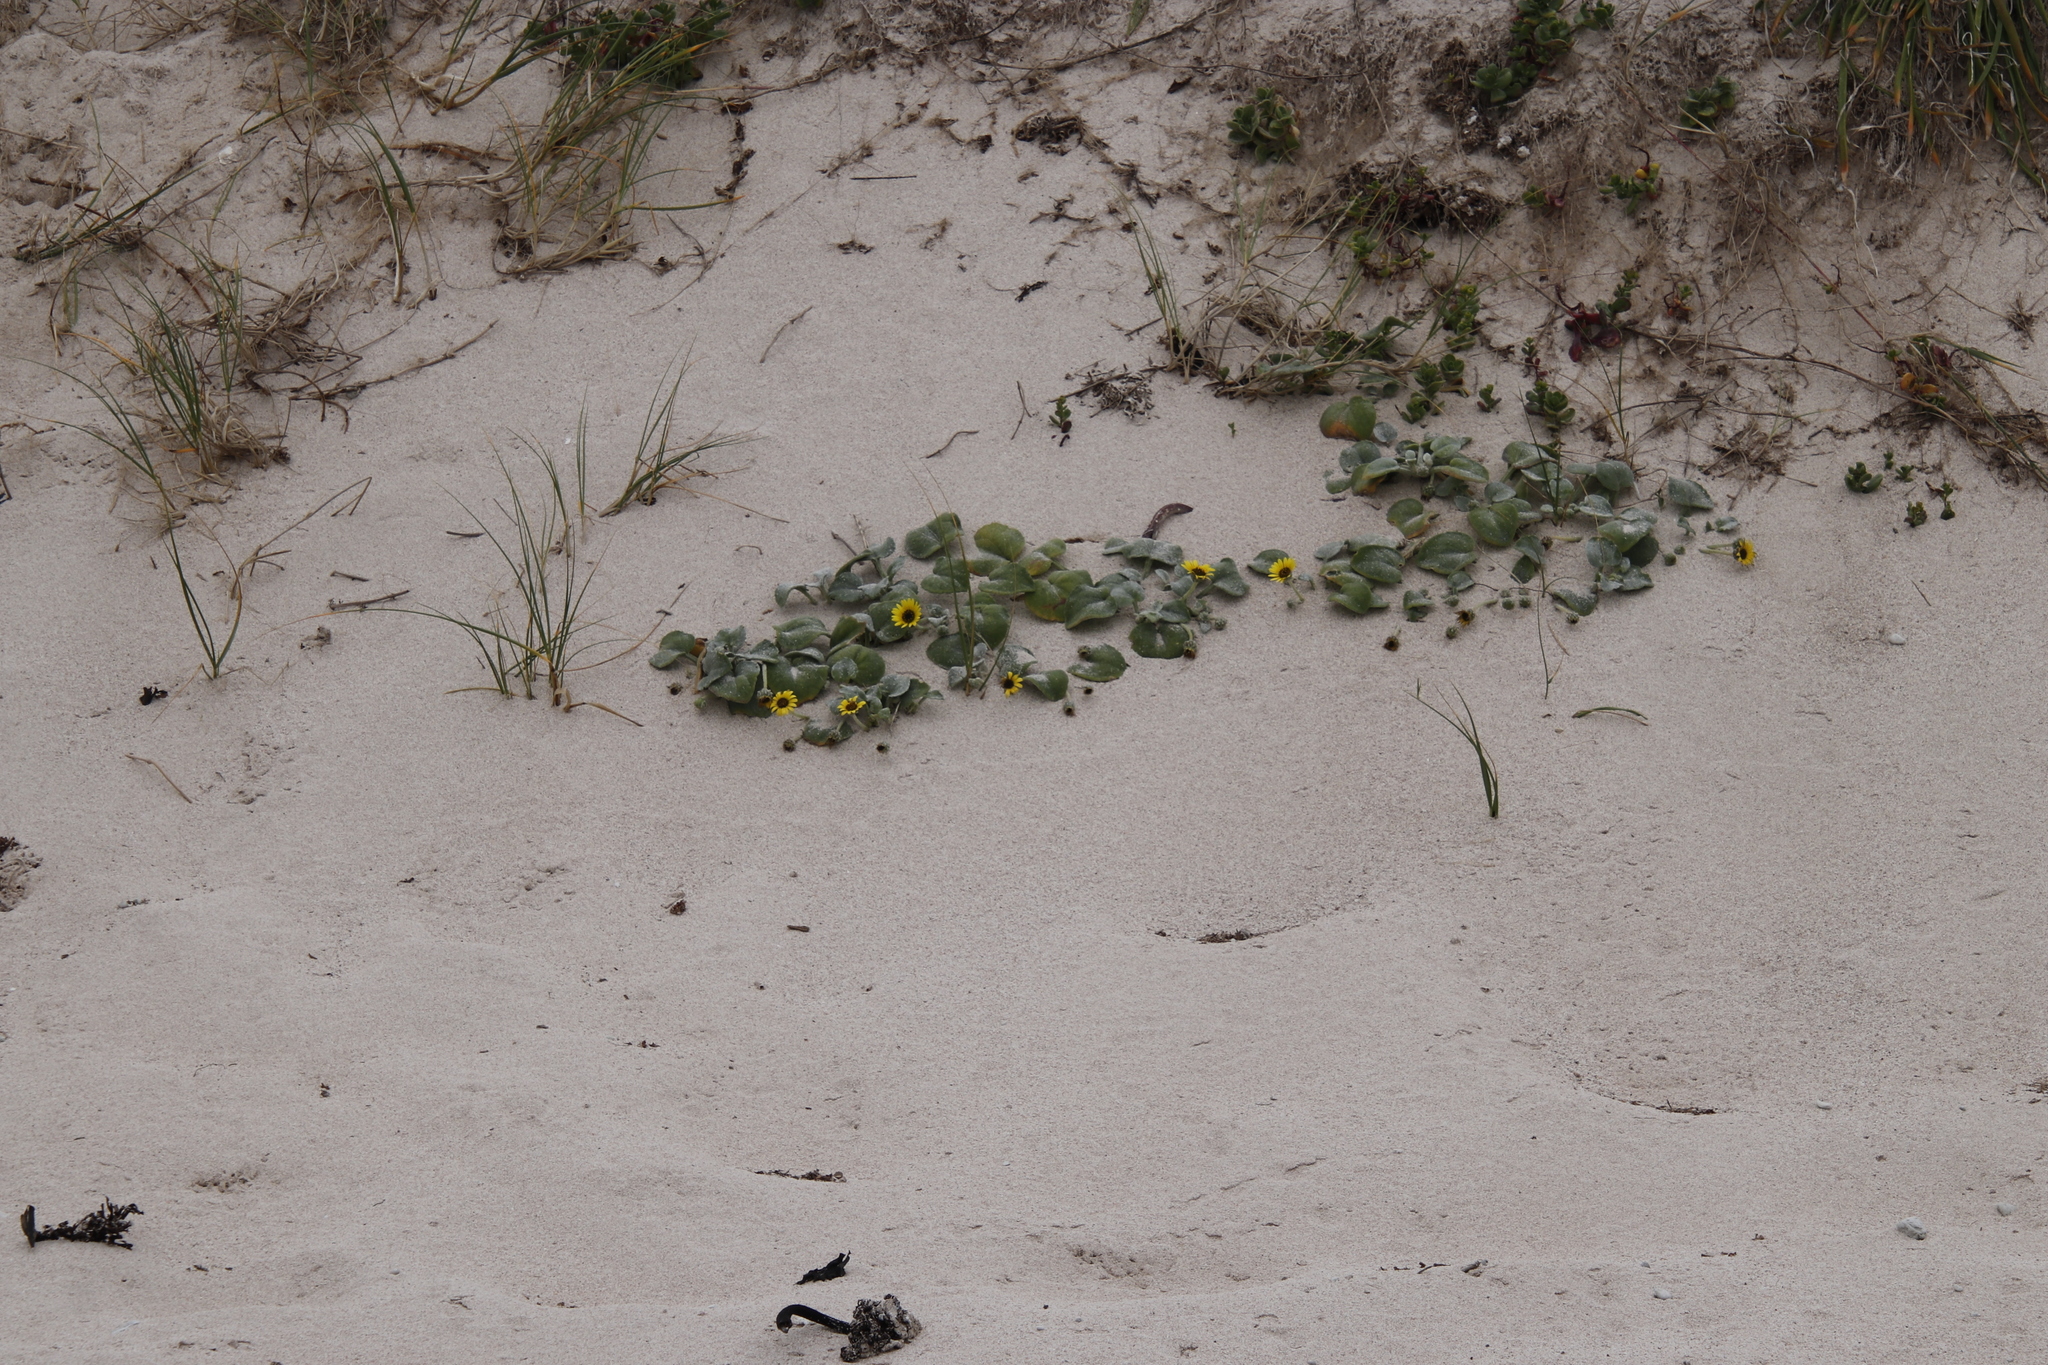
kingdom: Plantae
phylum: Tracheophyta
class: Magnoliopsida
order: Asterales
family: Asteraceae
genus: Arctotheca
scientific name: Arctotheca populifolia
